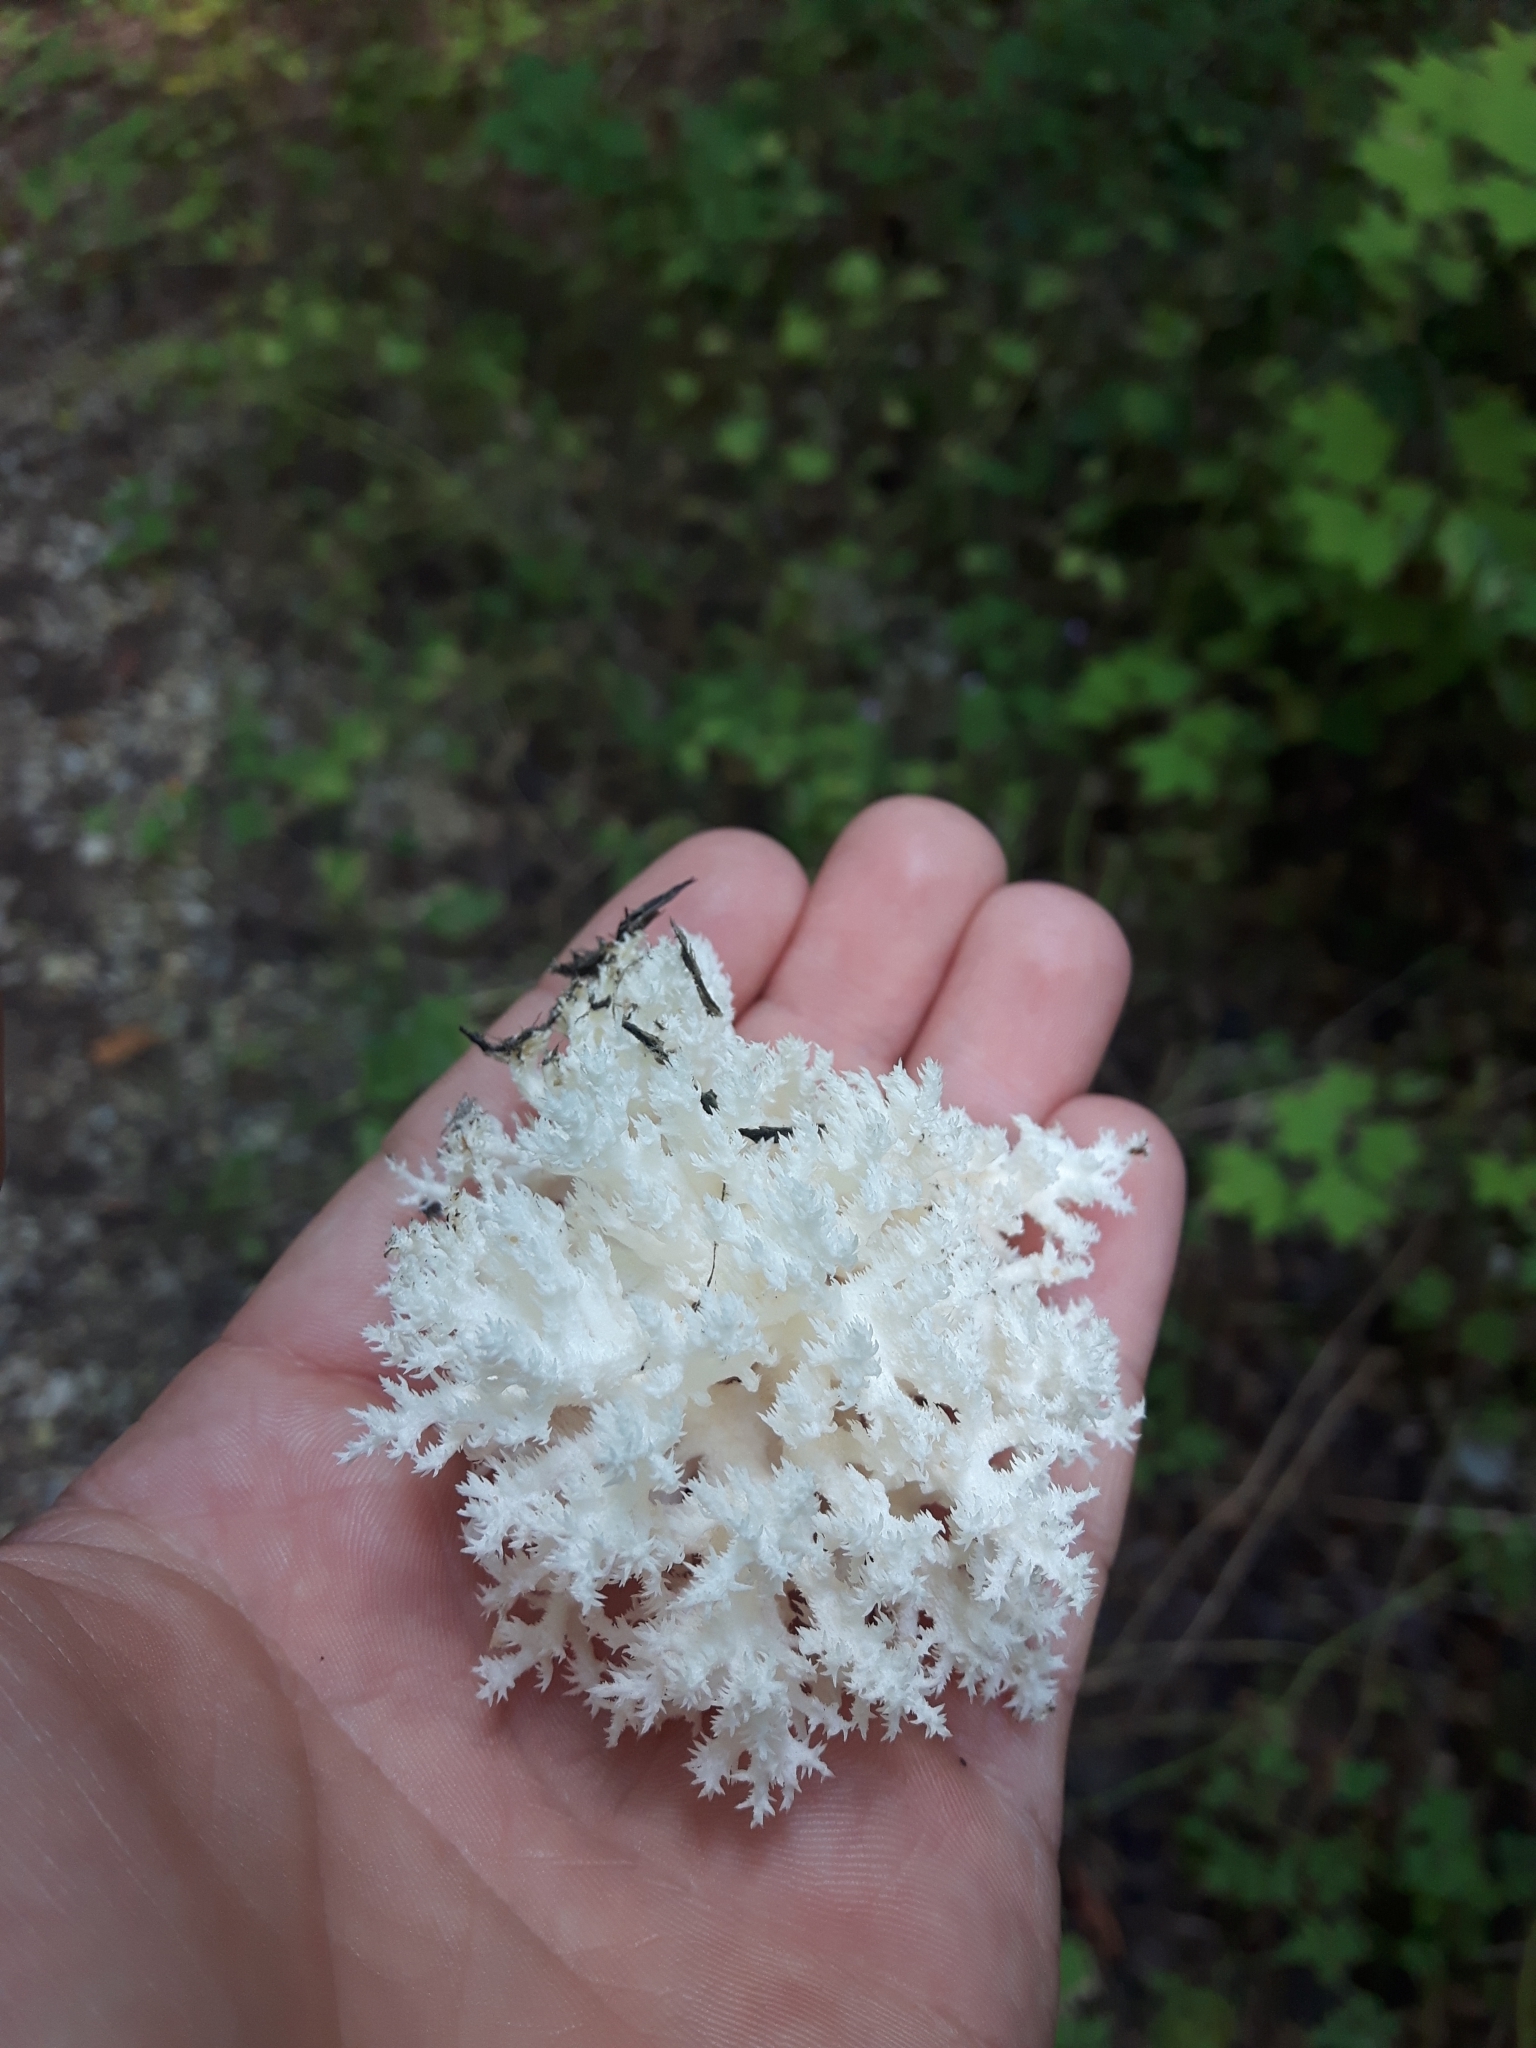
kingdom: Fungi
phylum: Basidiomycota
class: Agaricomycetes
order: Russulales
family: Hericiaceae
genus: Hericium
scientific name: Hericium coralloides
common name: Coral tooth
